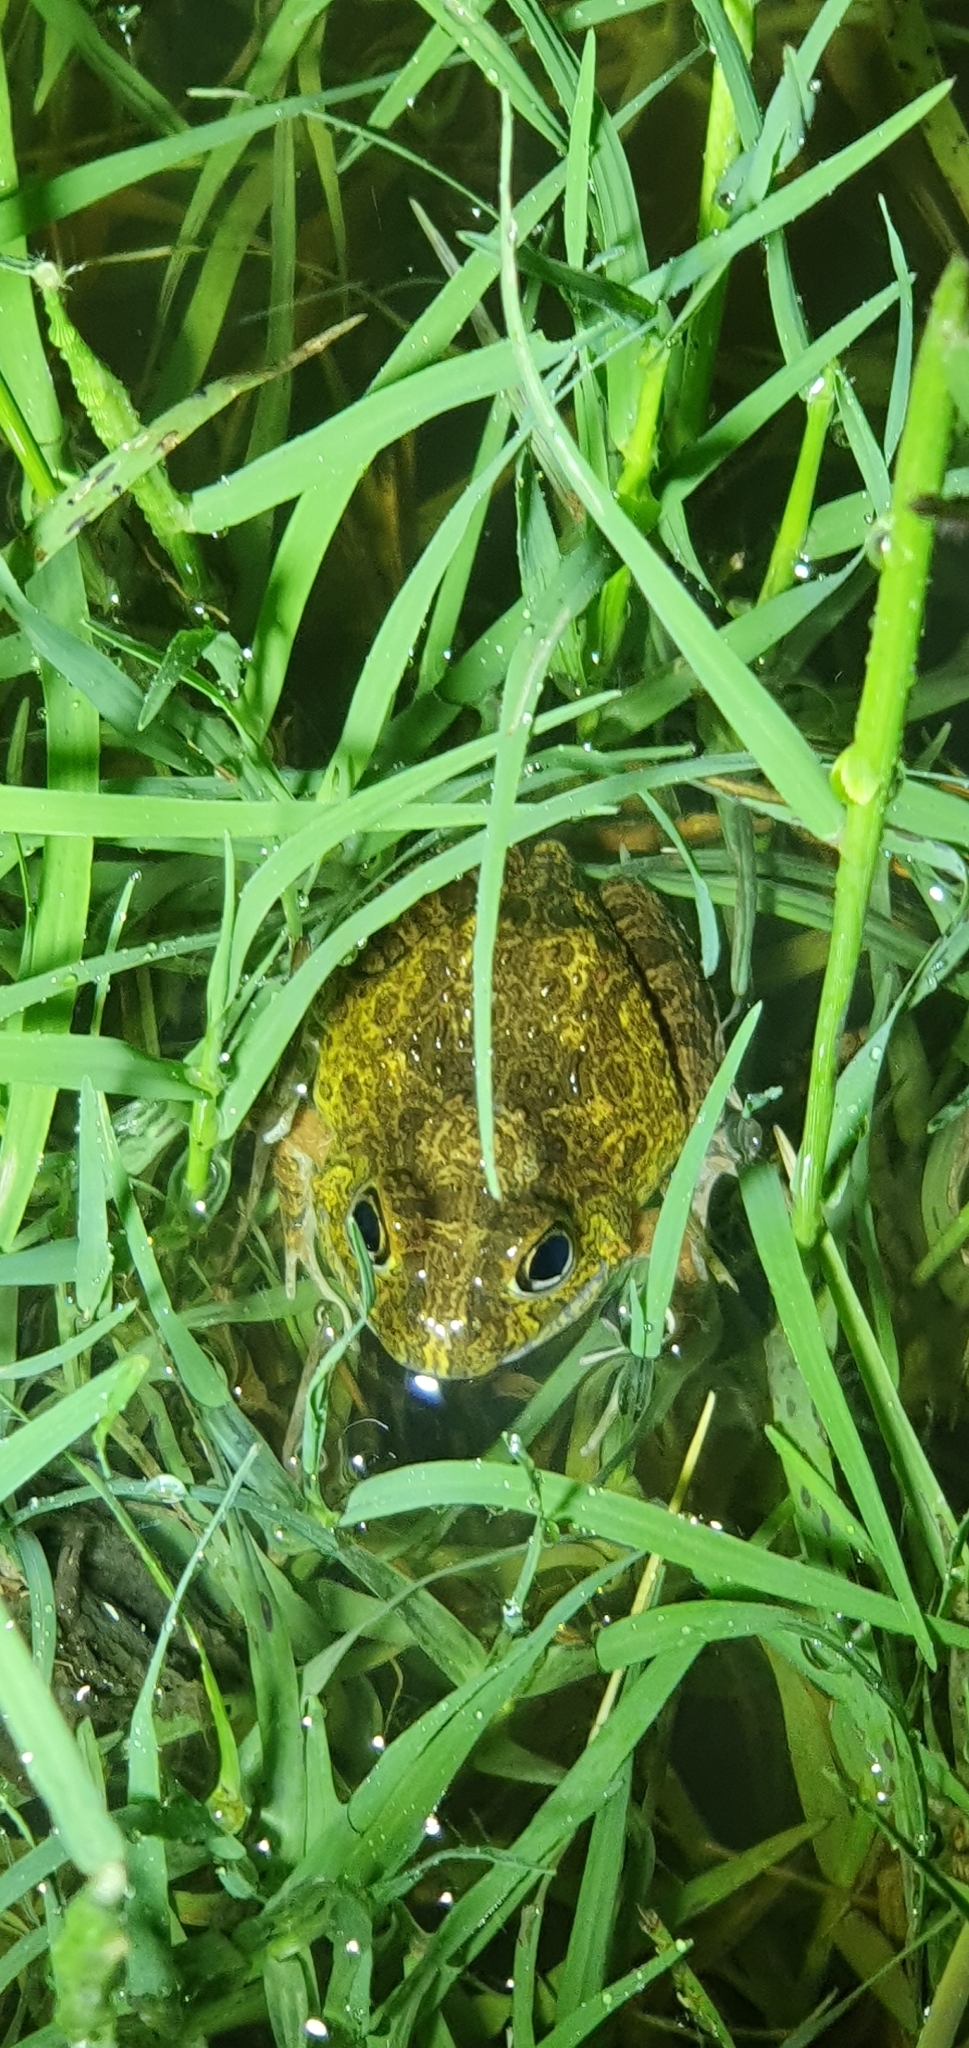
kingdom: Animalia
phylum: Chordata
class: Amphibia
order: Anura
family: Limnodynastidae
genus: Platyplectrum
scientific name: Platyplectrum ornatum
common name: Ornate burrowing frog
